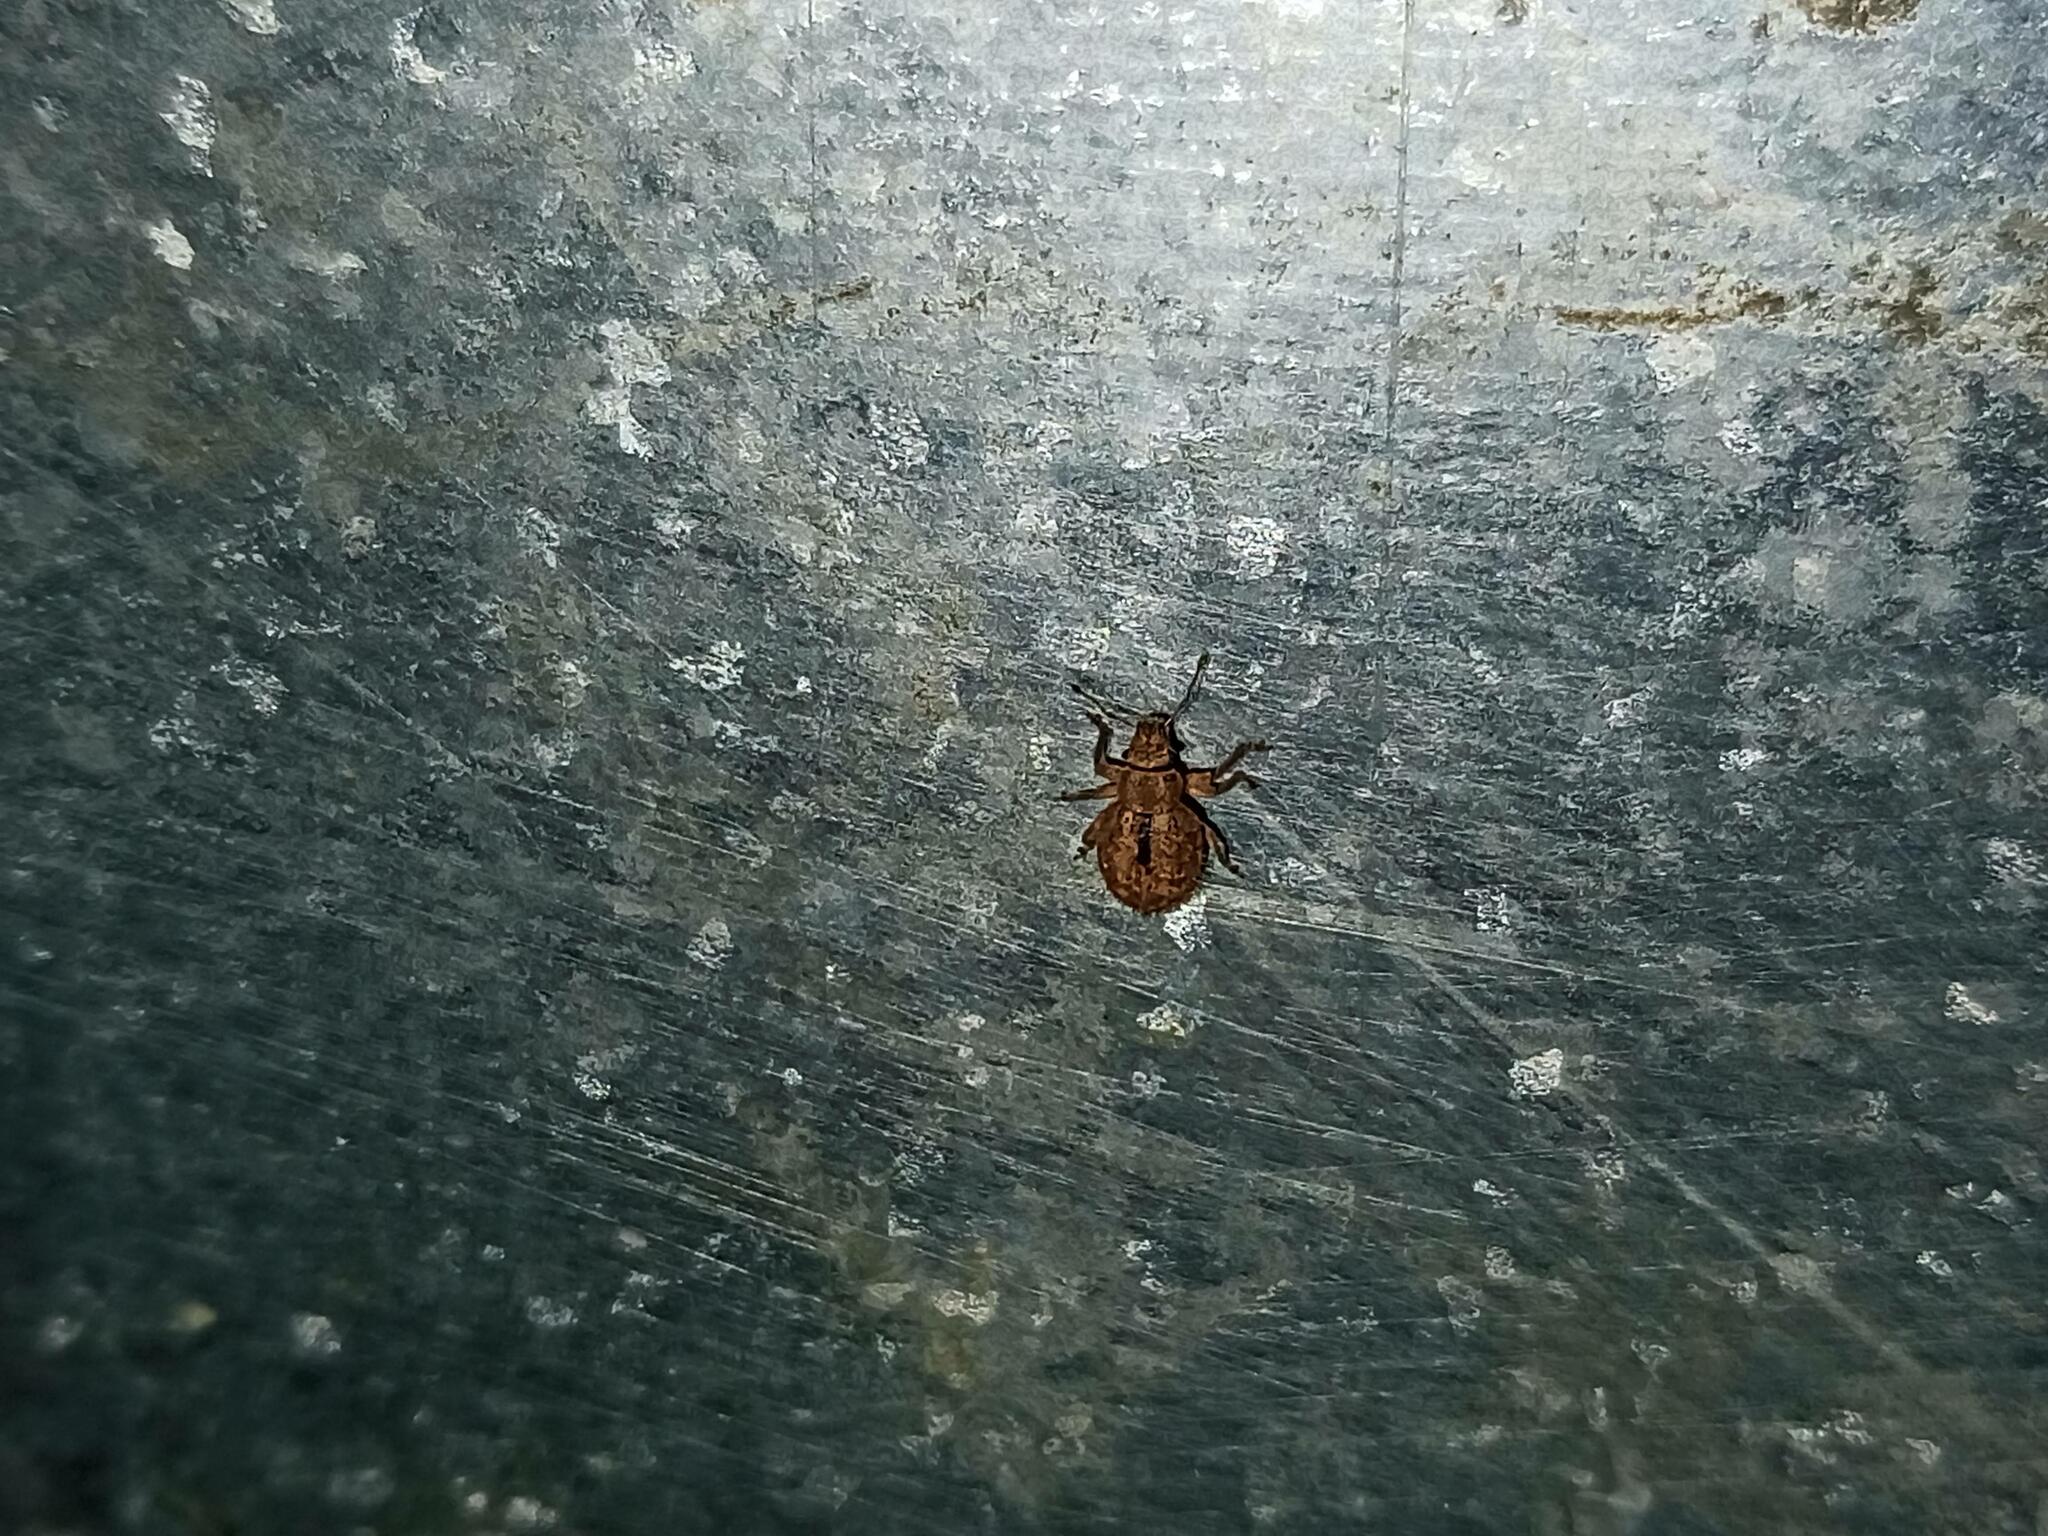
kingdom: Animalia
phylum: Arthropoda
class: Insecta
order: Coleoptera
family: Curculionidae
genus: Strophosoma
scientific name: Strophosoma melanogrammum
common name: Weevil
